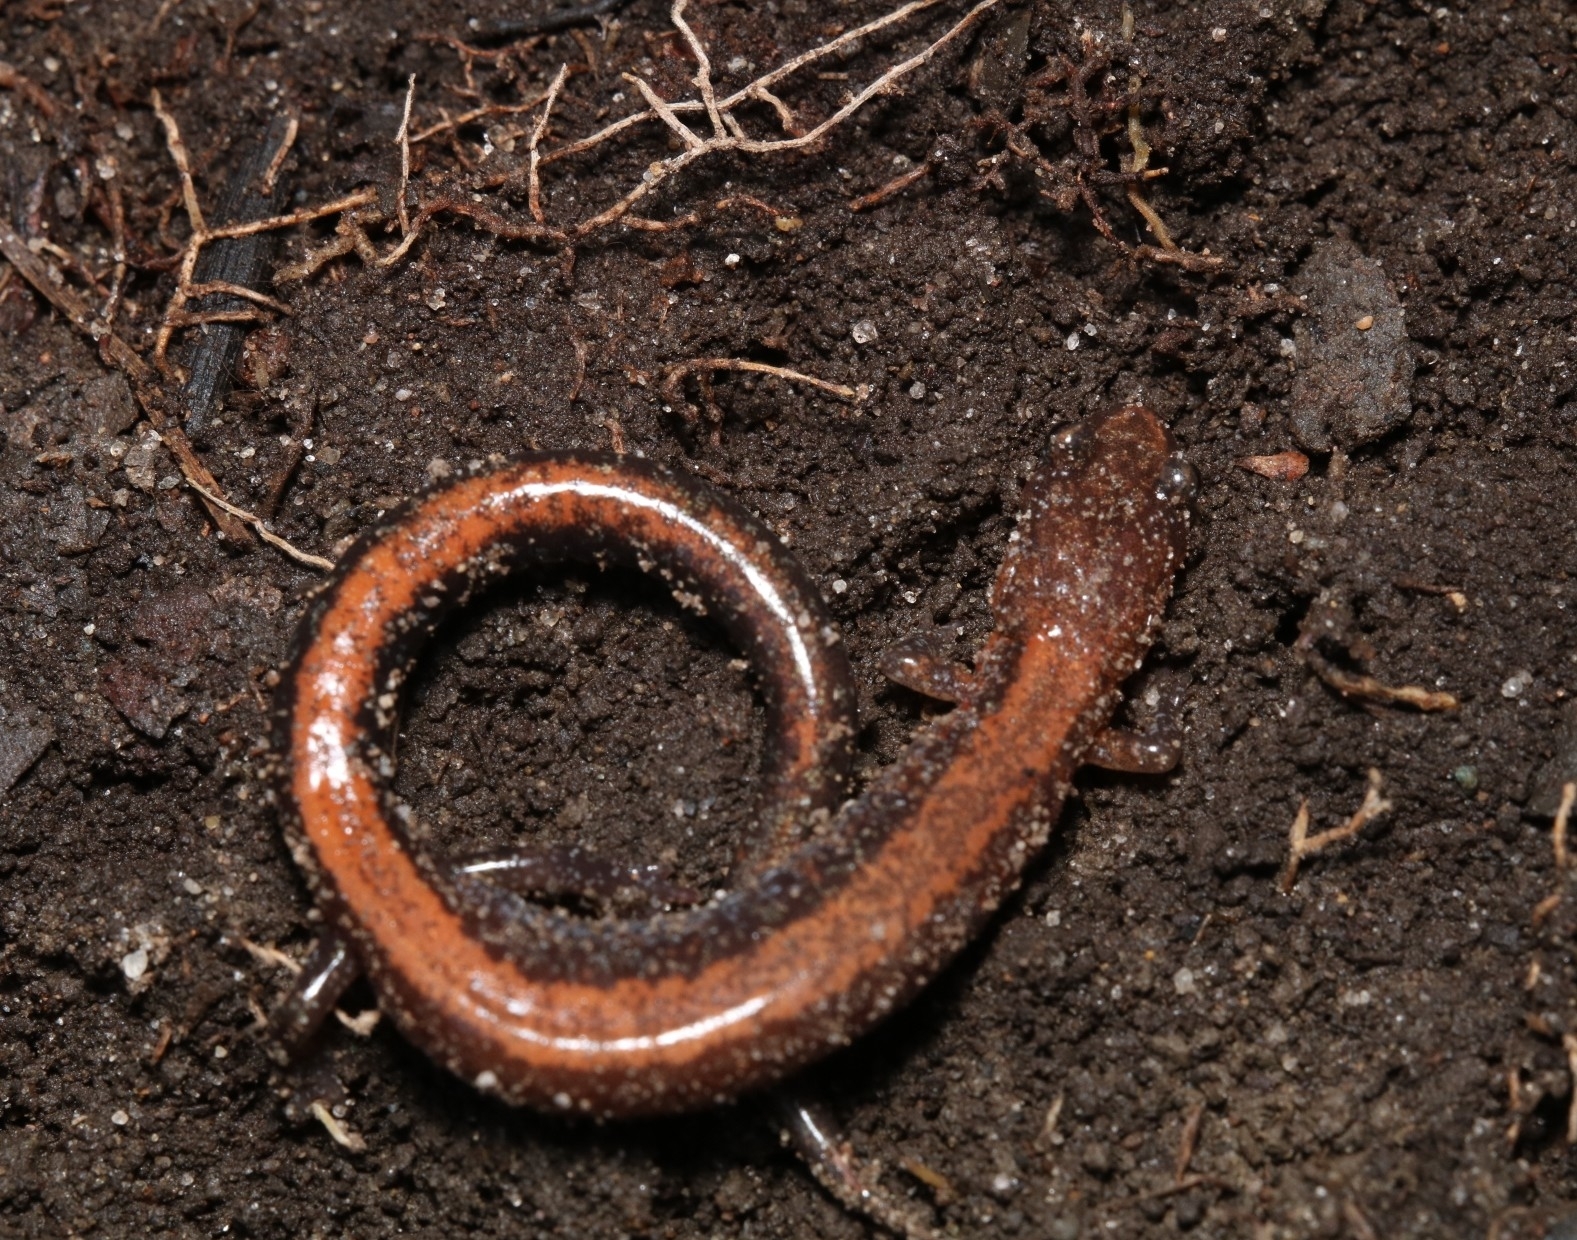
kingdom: Animalia
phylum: Chordata
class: Amphibia
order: Caudata
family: Plethodontidae
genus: Plethodon
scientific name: Plethodon cinereus
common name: Redback salamander
